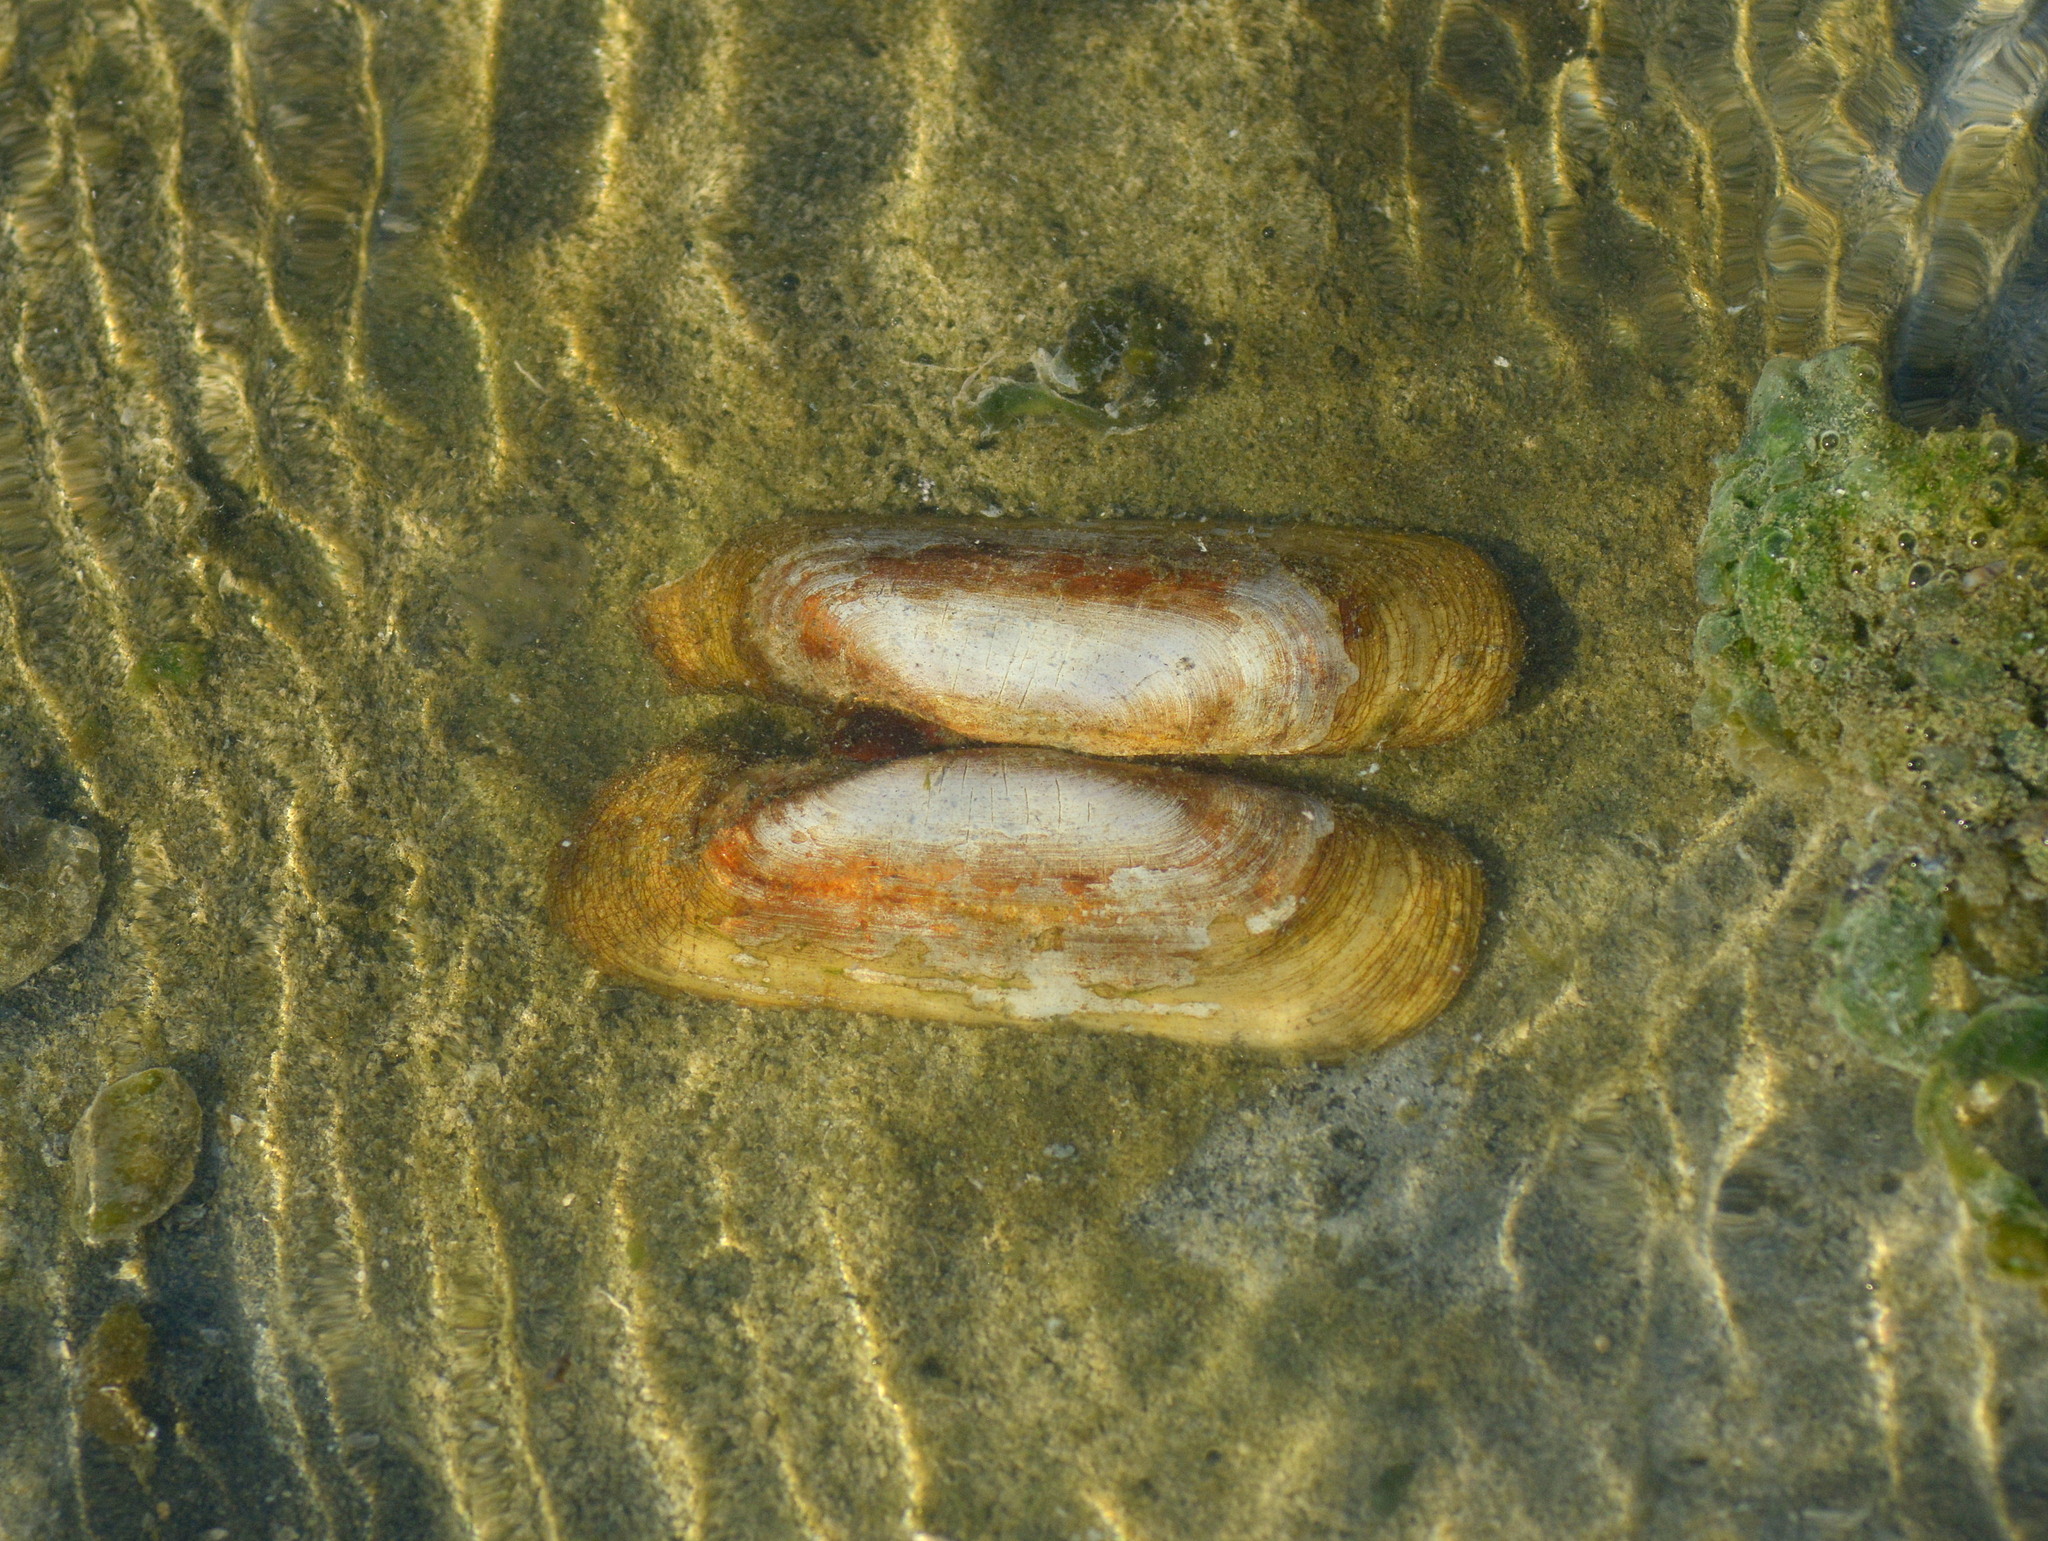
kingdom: Animalia
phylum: Mollusca
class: Bivalvia
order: Cardiida
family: Solecurtidae
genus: Tagelus
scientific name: Tagelus plebeius
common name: Stout tagelus
